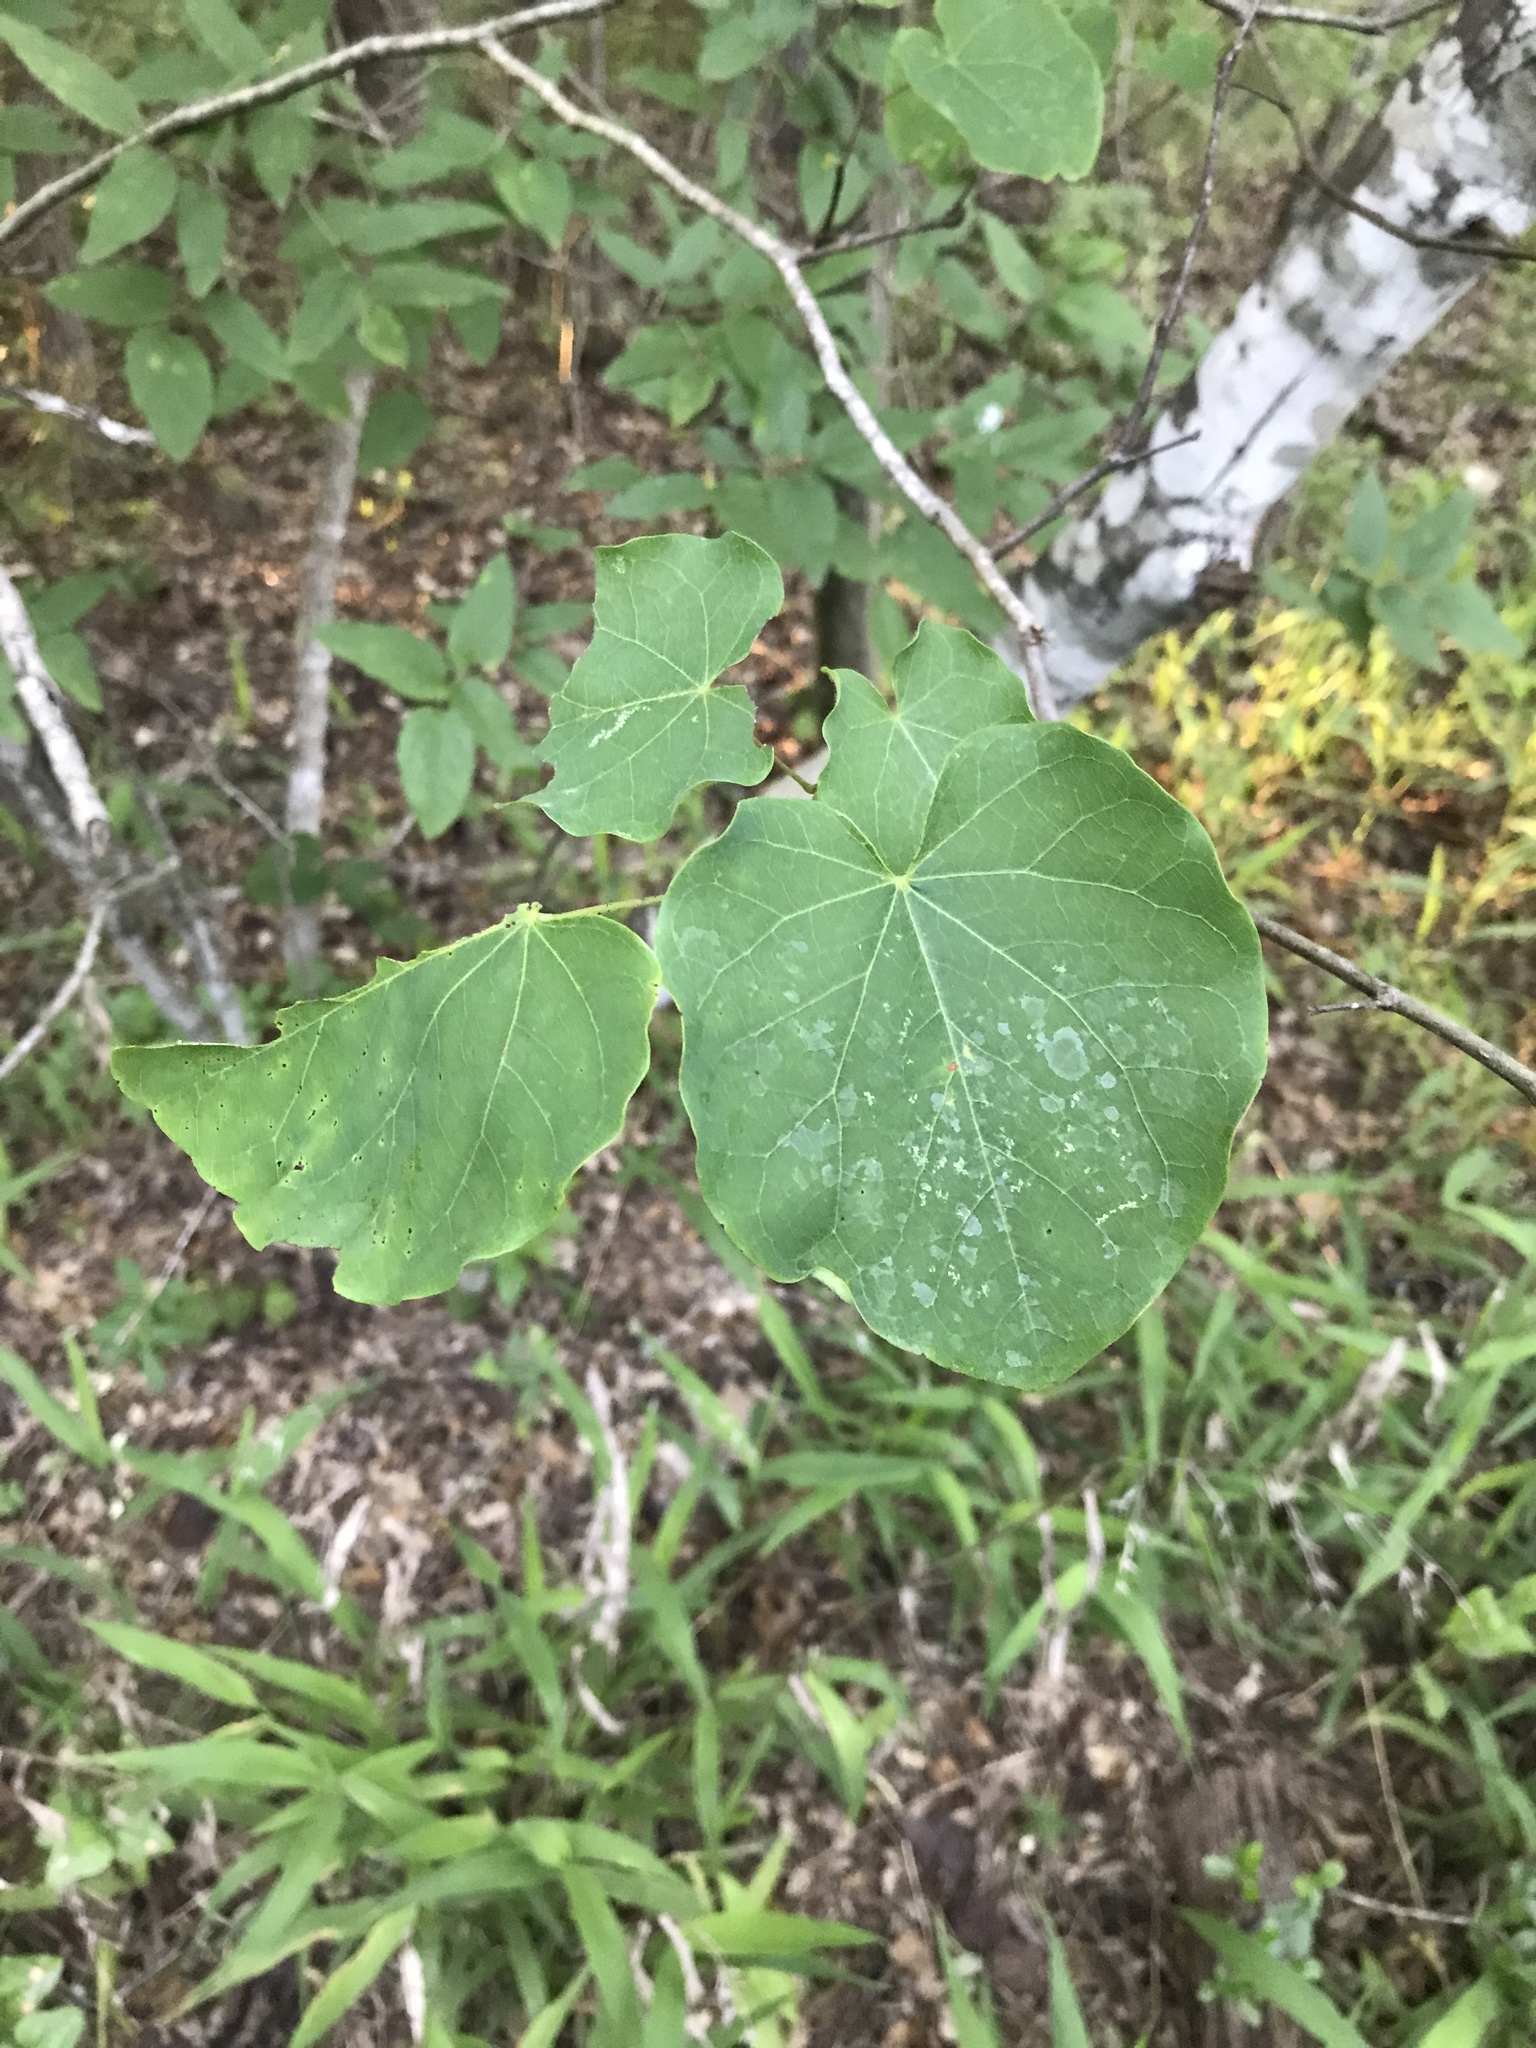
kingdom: Plantae
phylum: Tracheophyta
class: Magnoliopsida
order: Fabales
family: Fabaceae
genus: Cercis
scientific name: Cercis canadensis
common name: Eastern redbud
